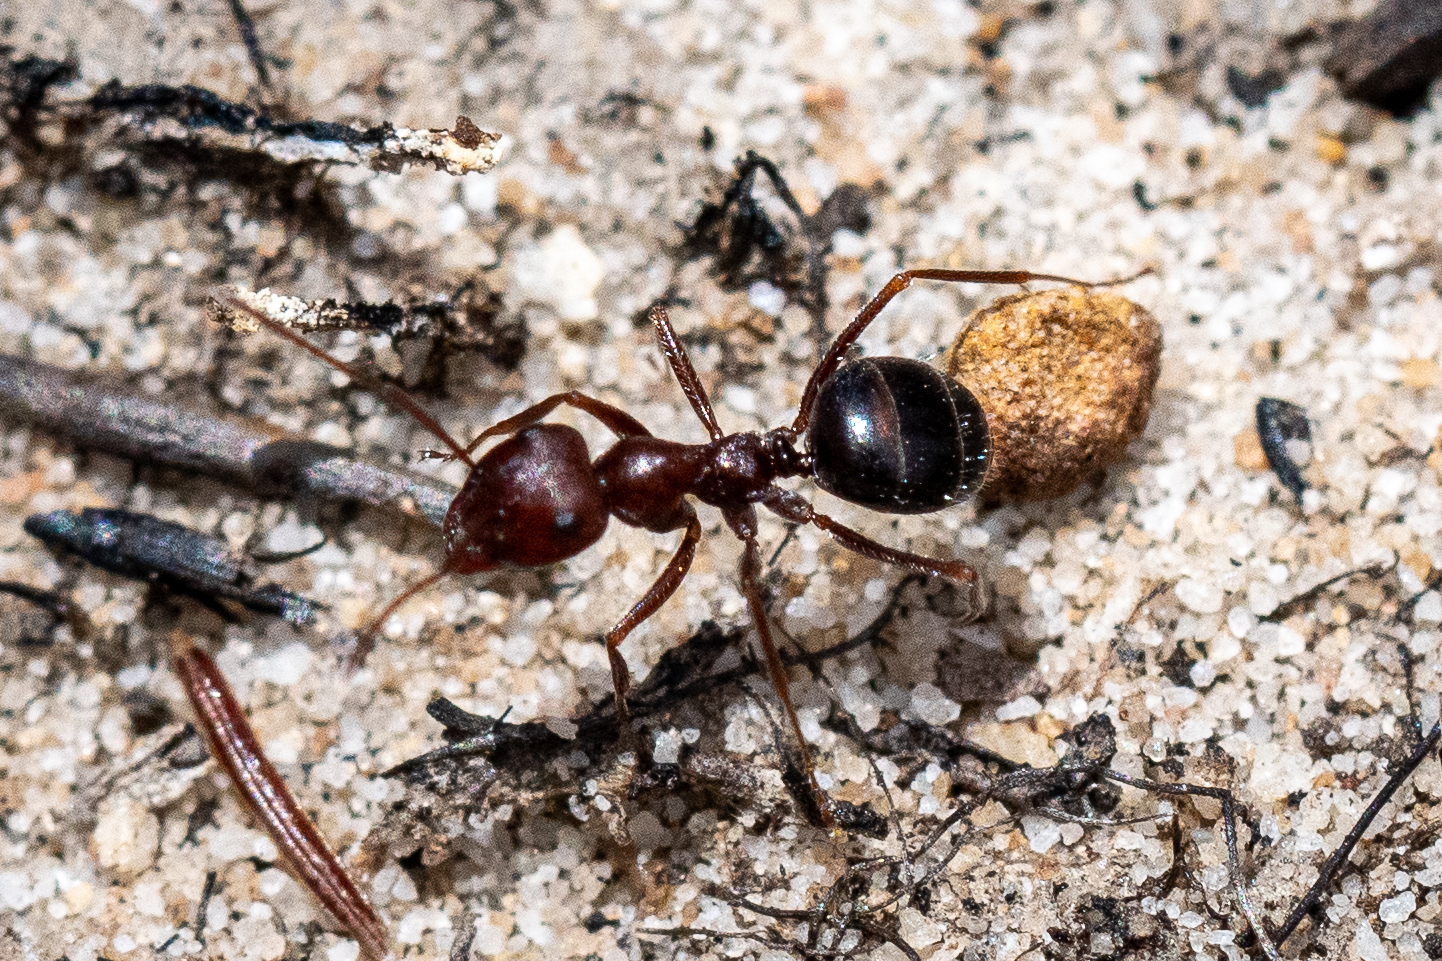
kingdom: Animalia
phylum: Arthropoda
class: Insecta
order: Hymenoptera
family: Formicidae
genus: Anoplolepis
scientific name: Anoplolepis steingroeveri
